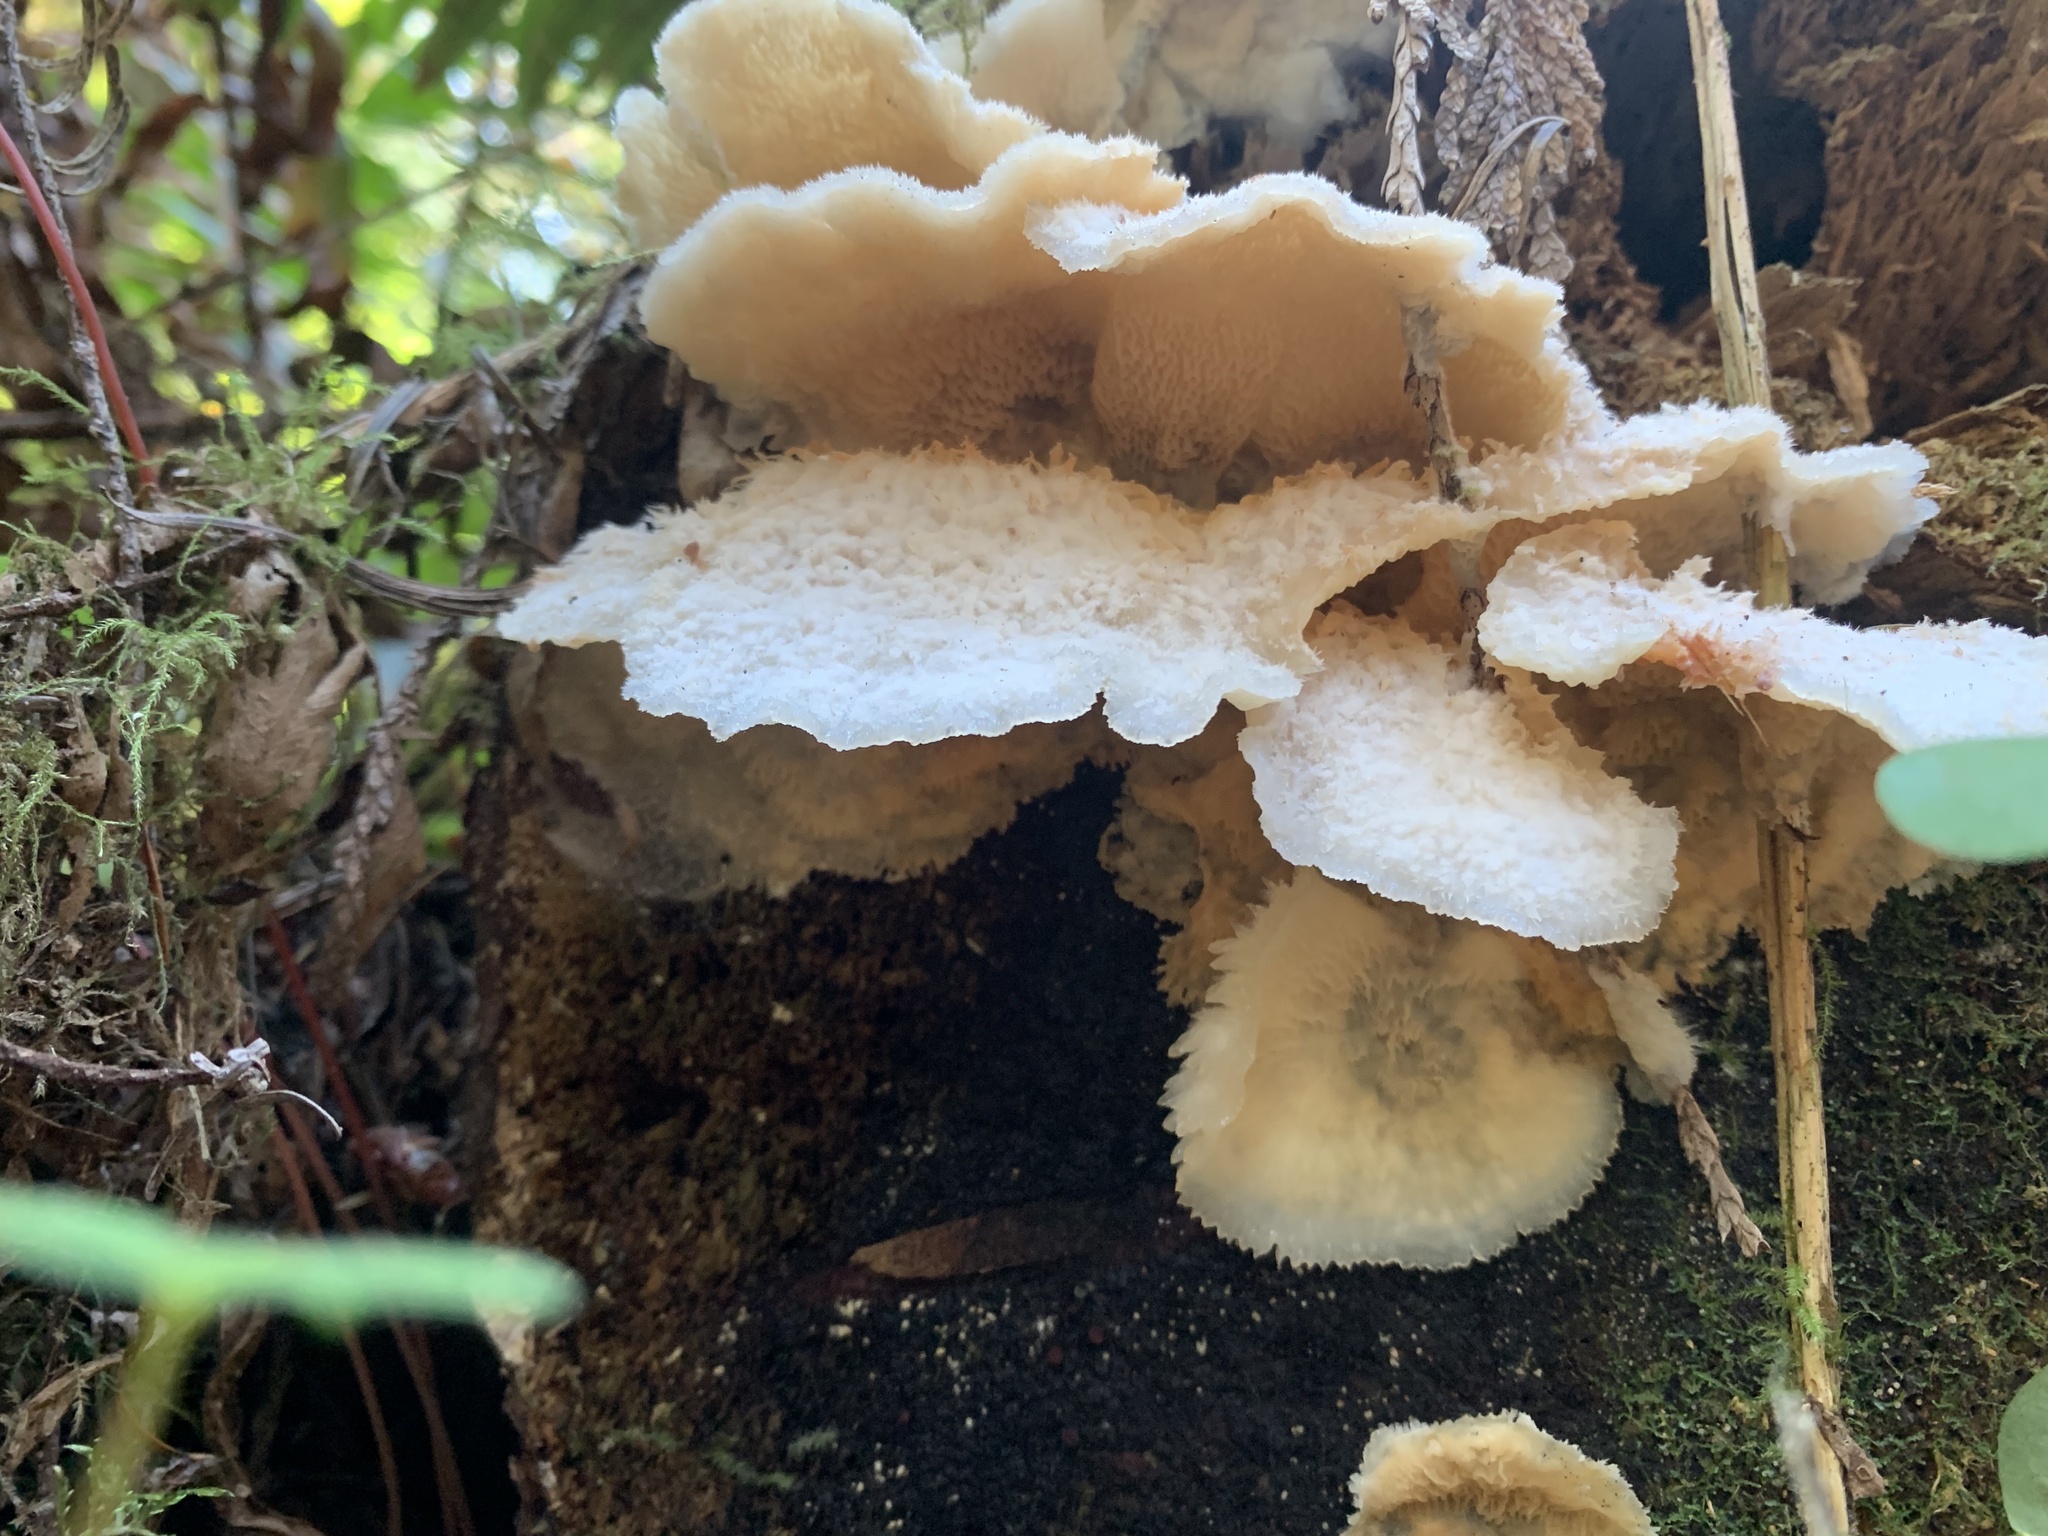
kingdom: Fungi
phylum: Basidiomycota
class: Agaricomycetes
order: Polyporales
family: Meruliaceae
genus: Phlebia
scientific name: Phlebia tremellosa
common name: Jelly rot
